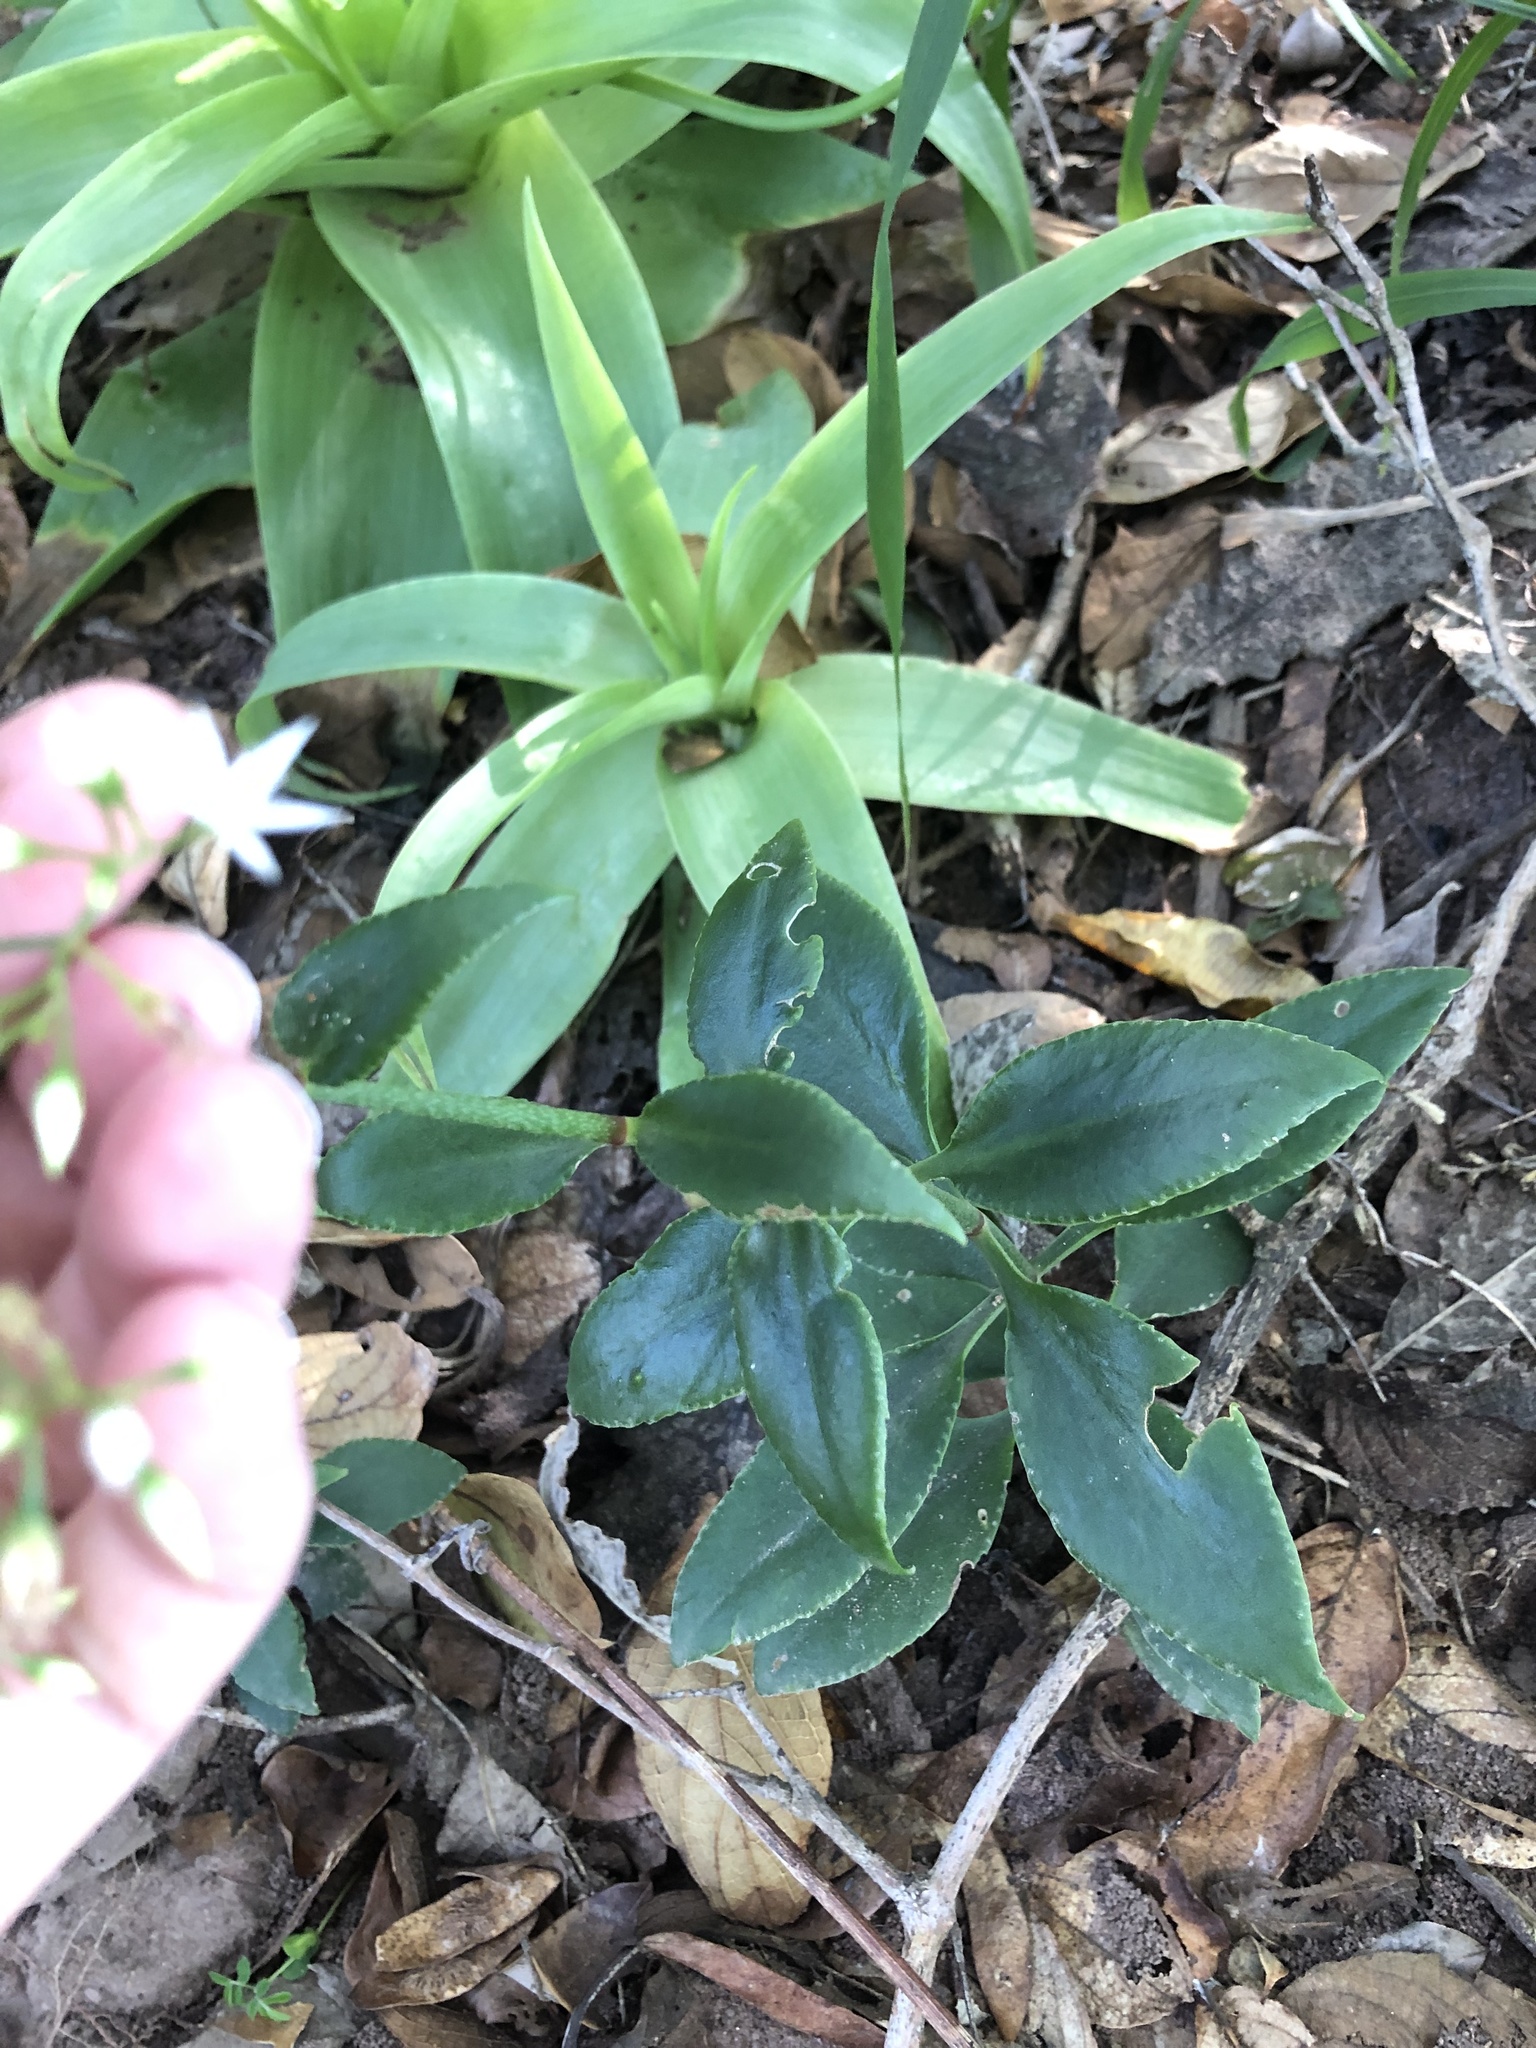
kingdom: Plantae
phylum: Tracheophyta
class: Magnoliopsida
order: Saxifragales
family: Crassulaceae
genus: Crassula
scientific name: Crassula sarmentosa
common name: Jade-tree
